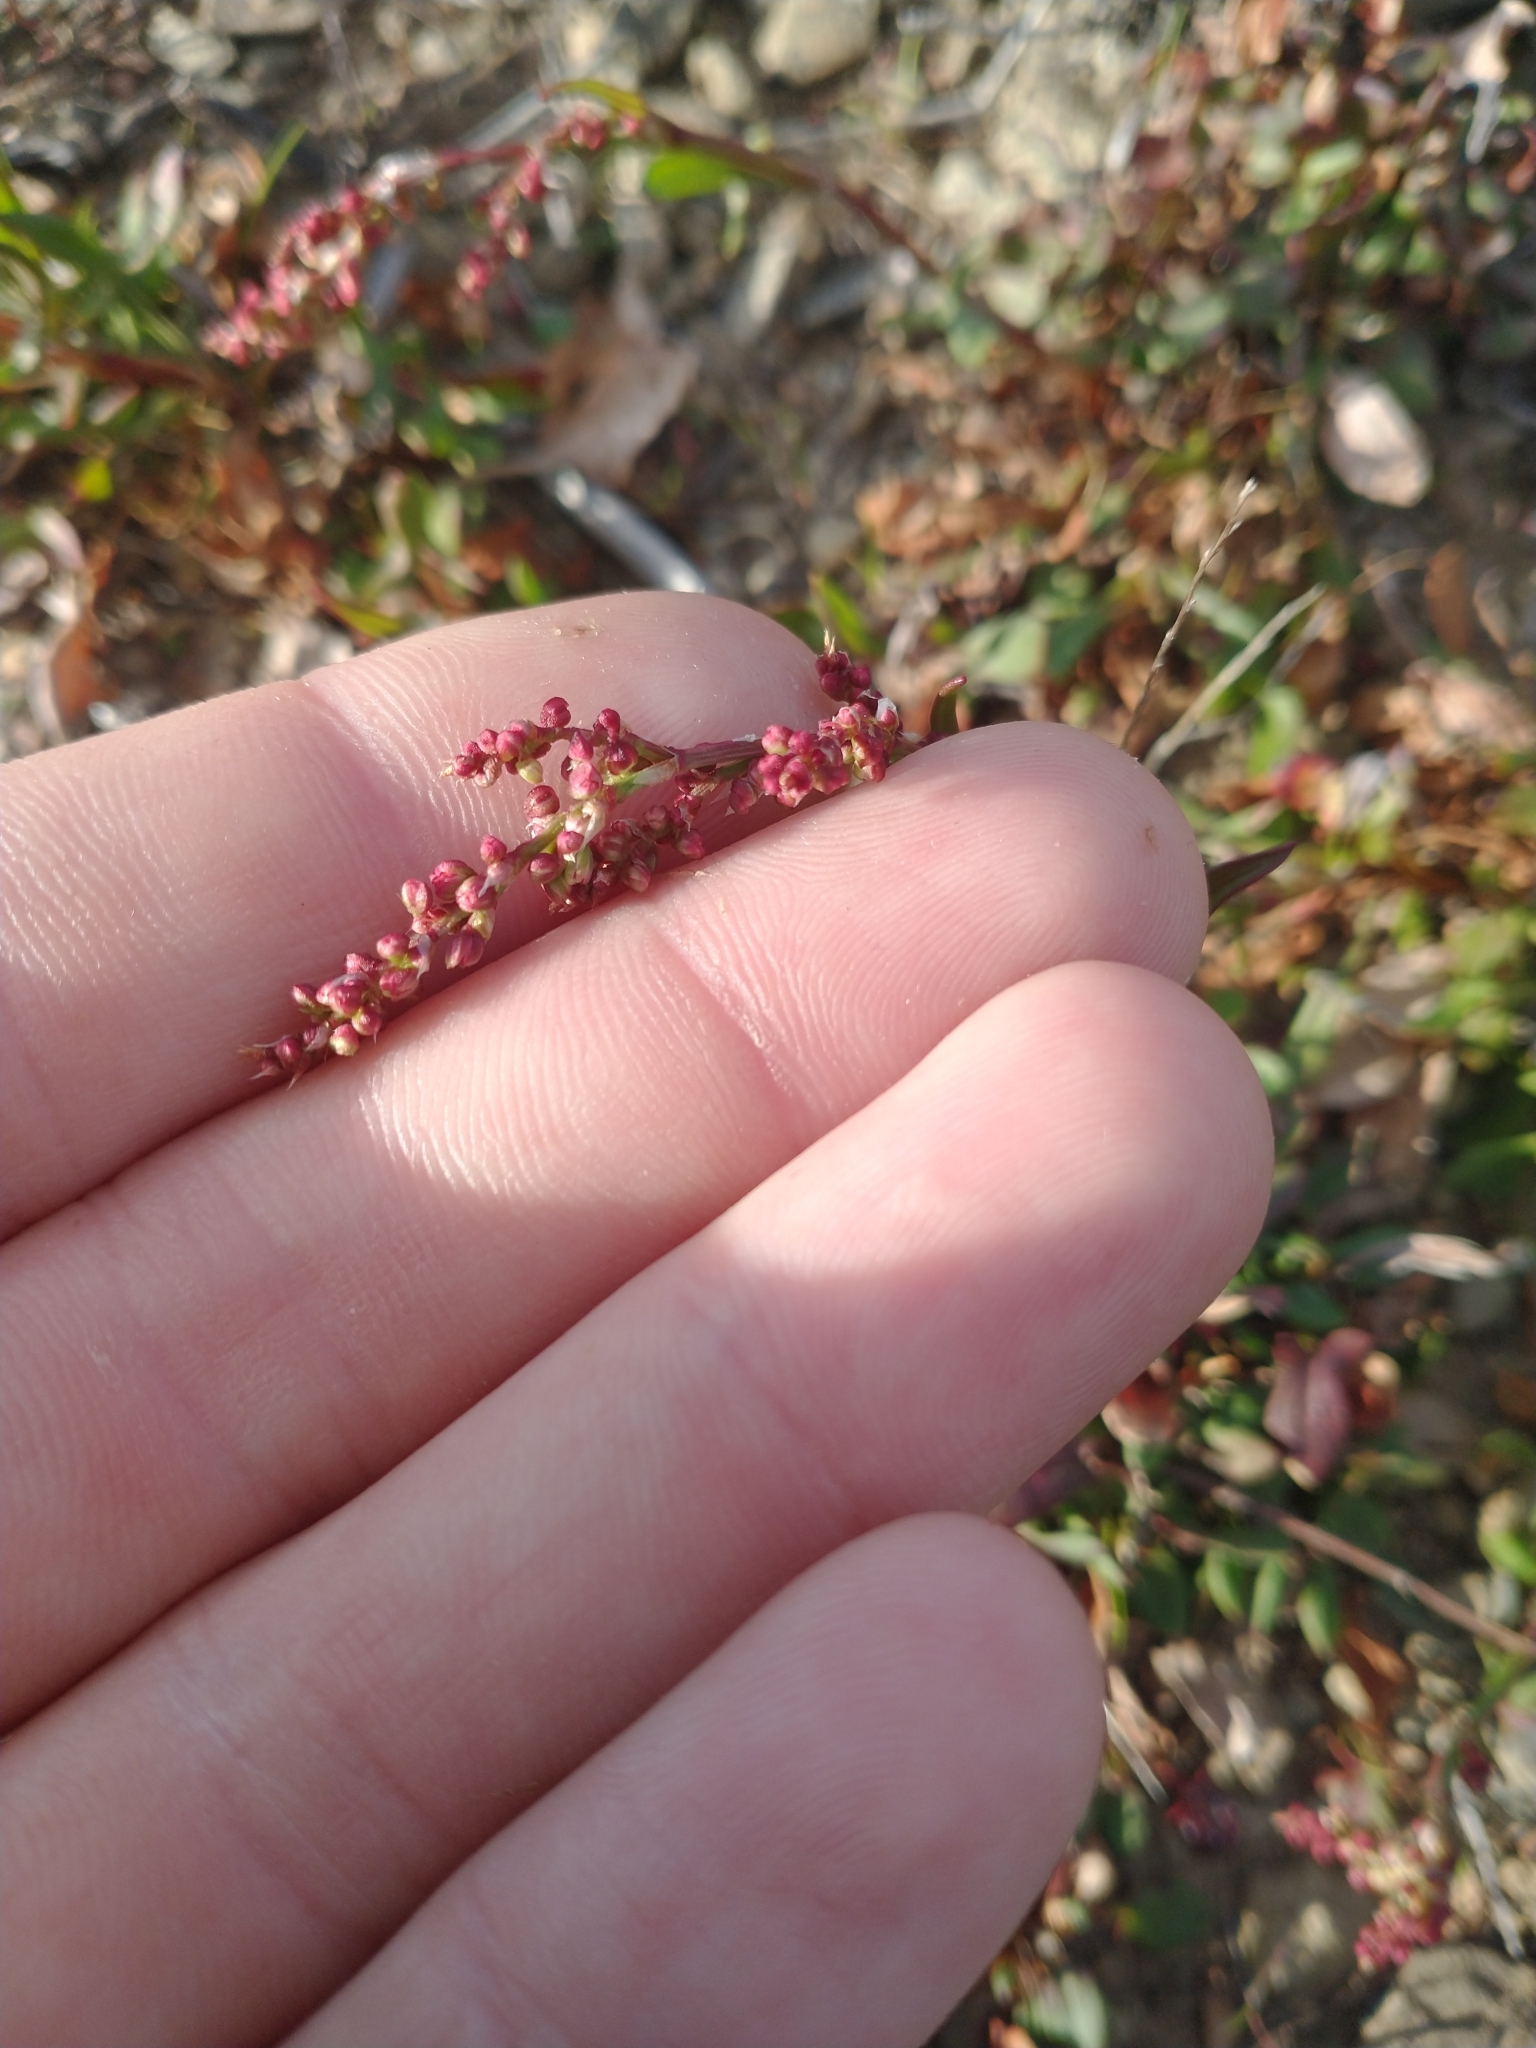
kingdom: Plantae
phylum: Tracheophyta
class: Magnoliopsida
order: Caryophyllales
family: Polygonaceae
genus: Rumex
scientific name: Rumex acetosella
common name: Common sheep sorrel
